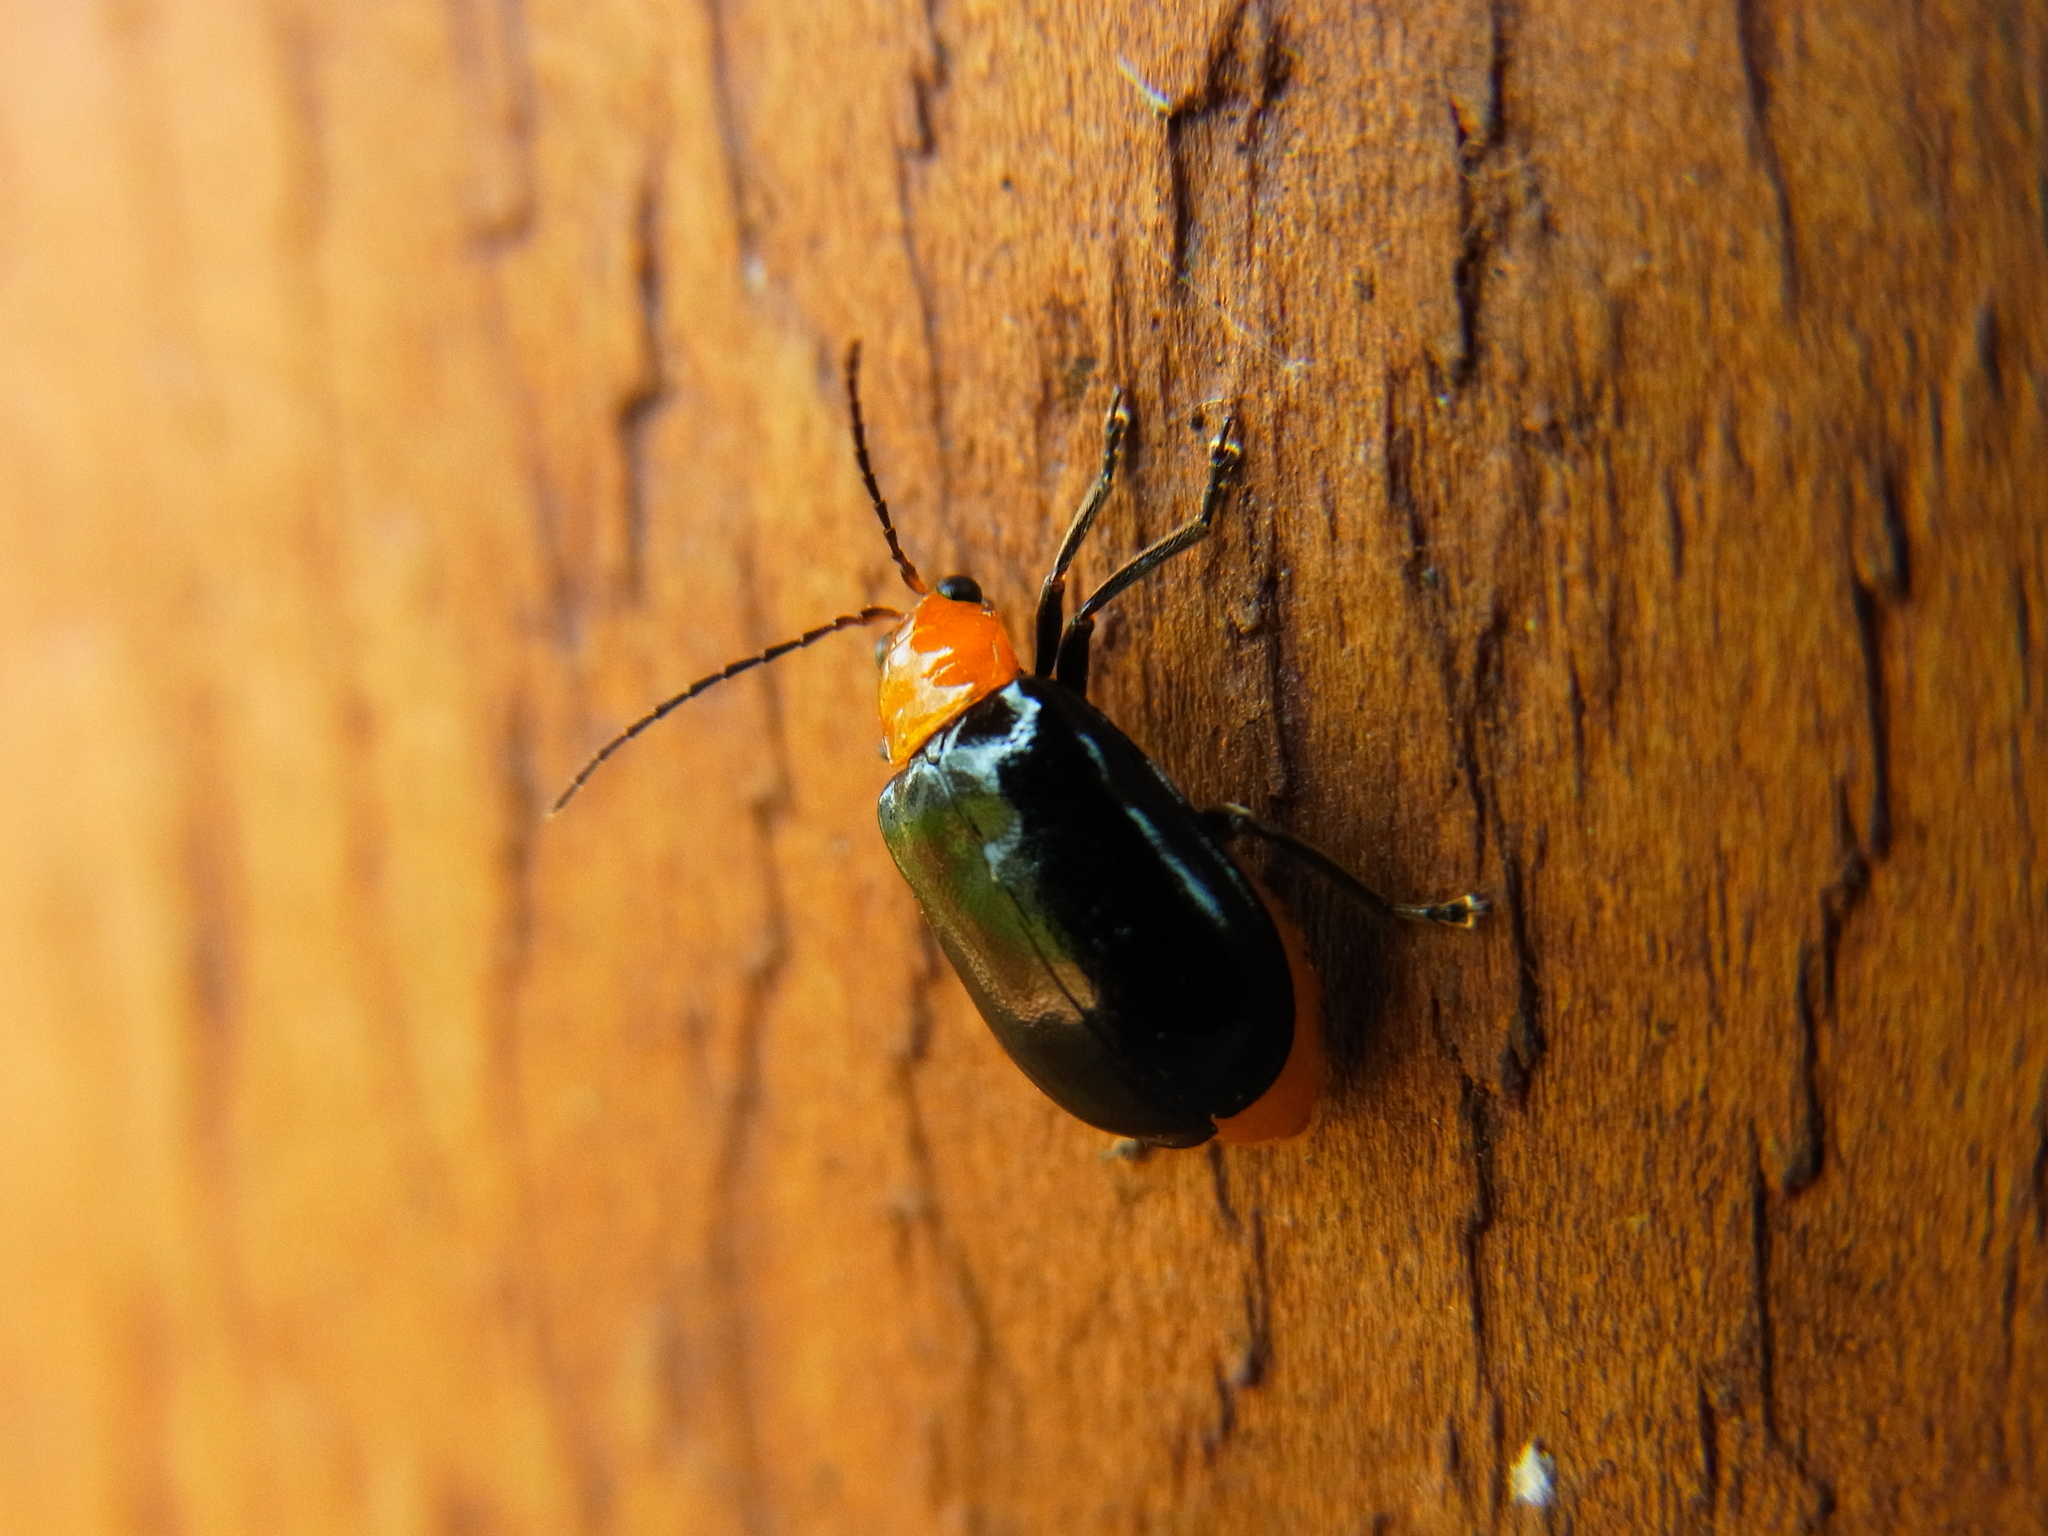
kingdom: Animalia
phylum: Arthropoda
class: Insecta
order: Coleoptera
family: Chrysomelidae
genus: Aulacophora
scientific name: Aulacophora nigripennis
